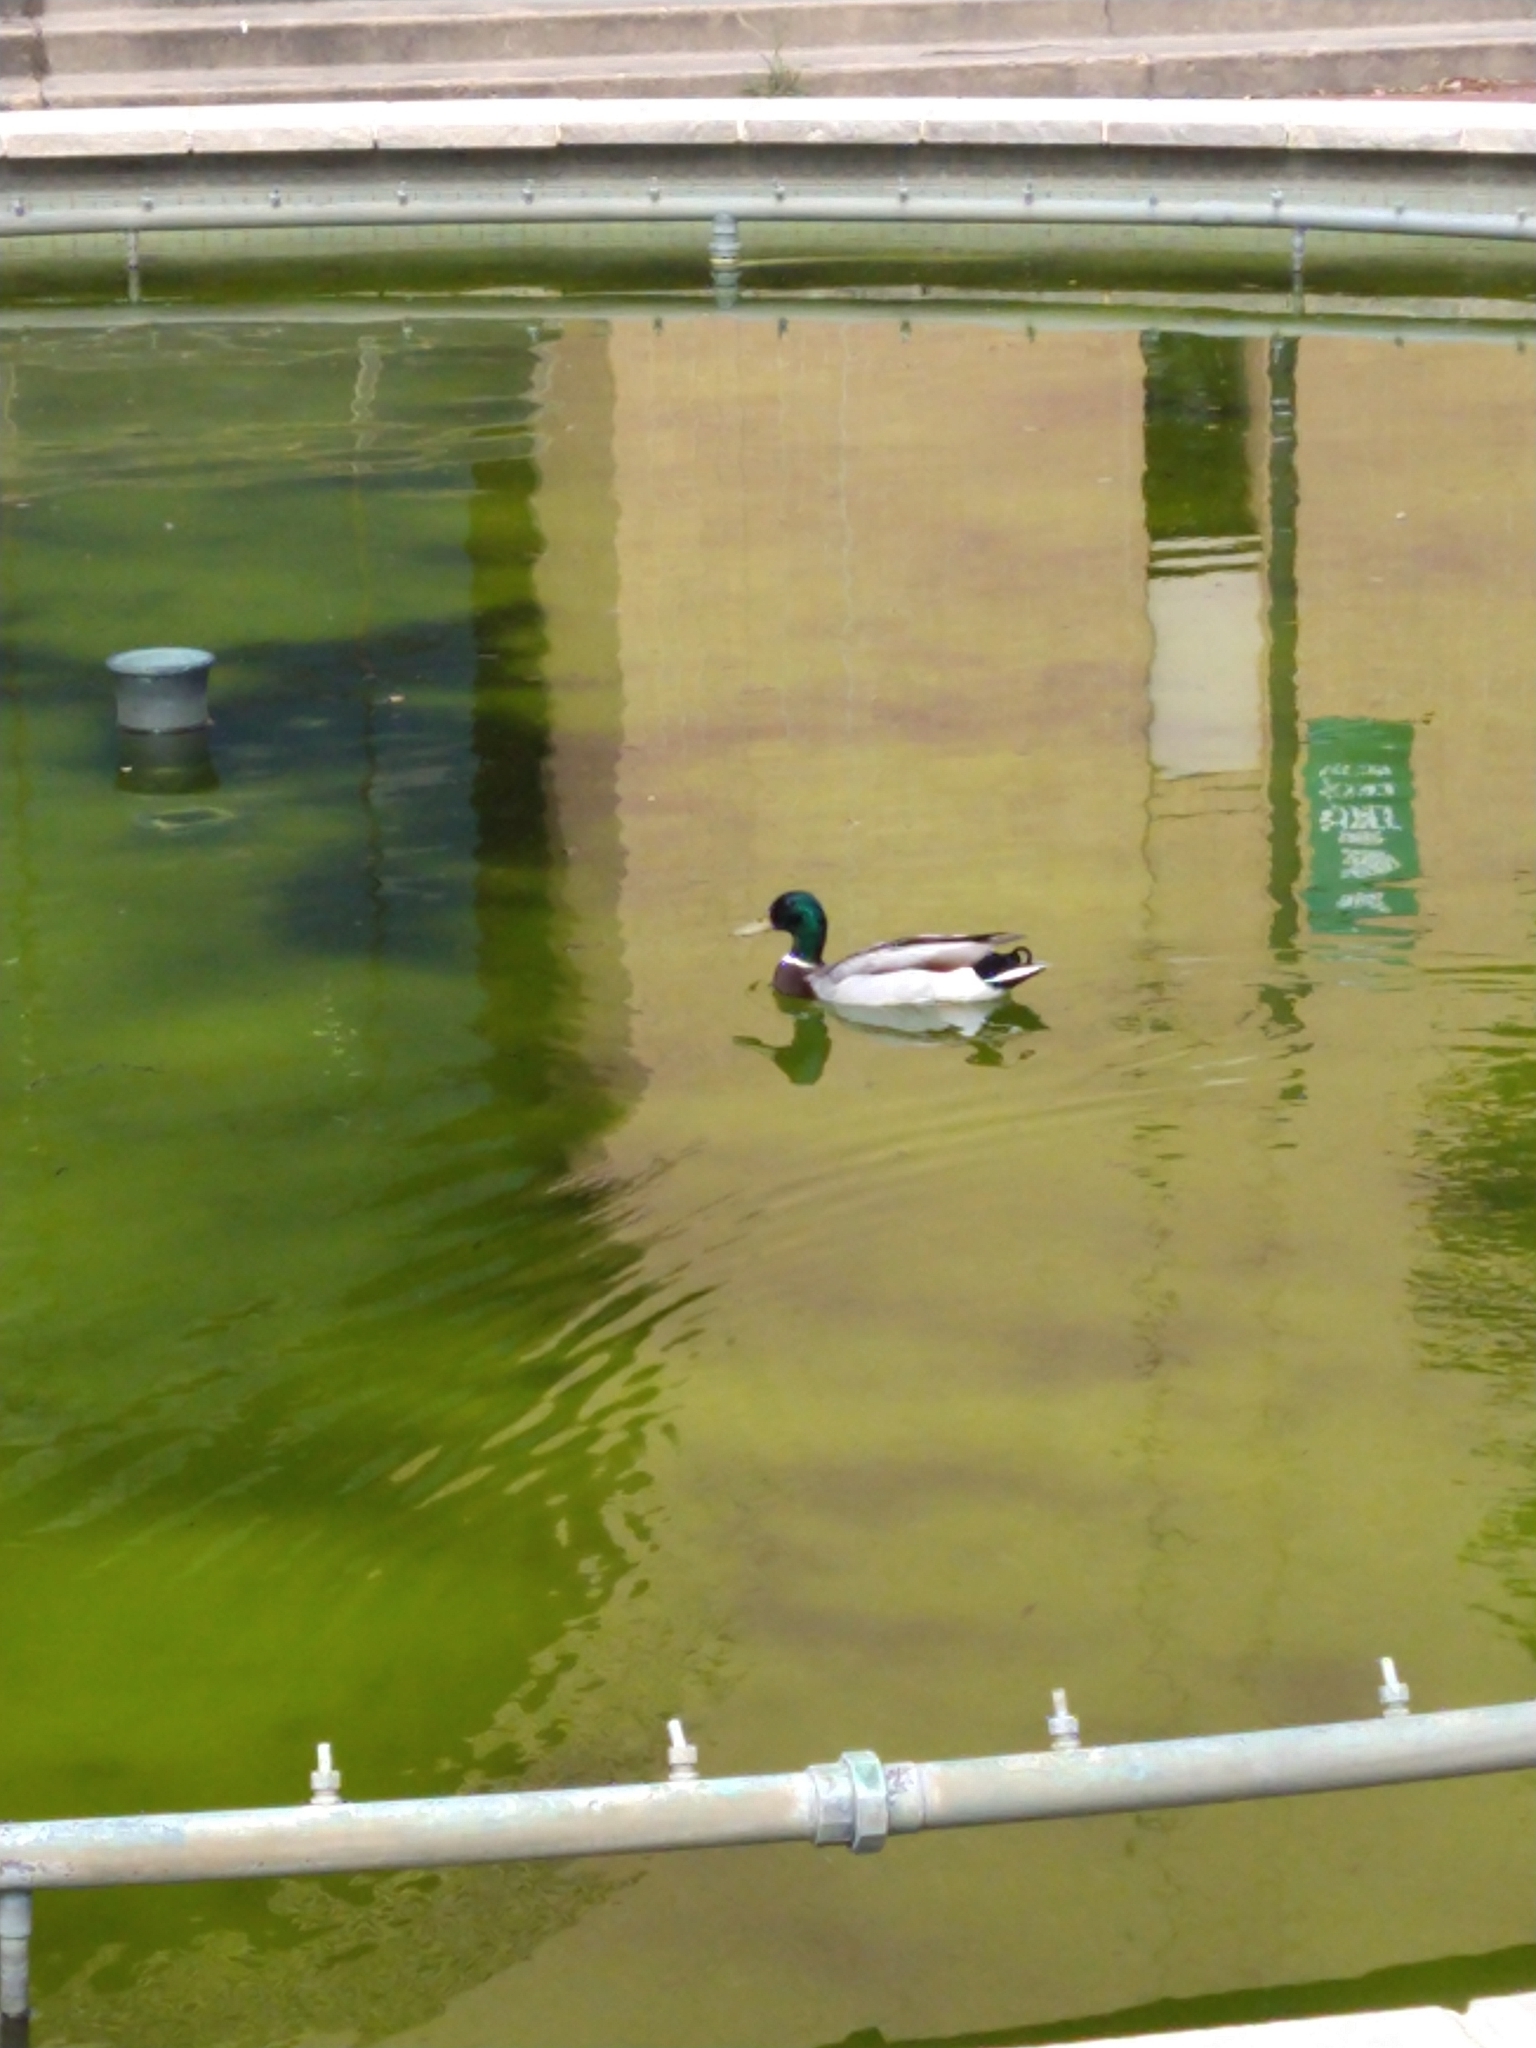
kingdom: Animalia
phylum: Chordata
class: Aves
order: Anseriformes
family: Anatidae
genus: Anas
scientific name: Anas platyrhynchos
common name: Mallard
